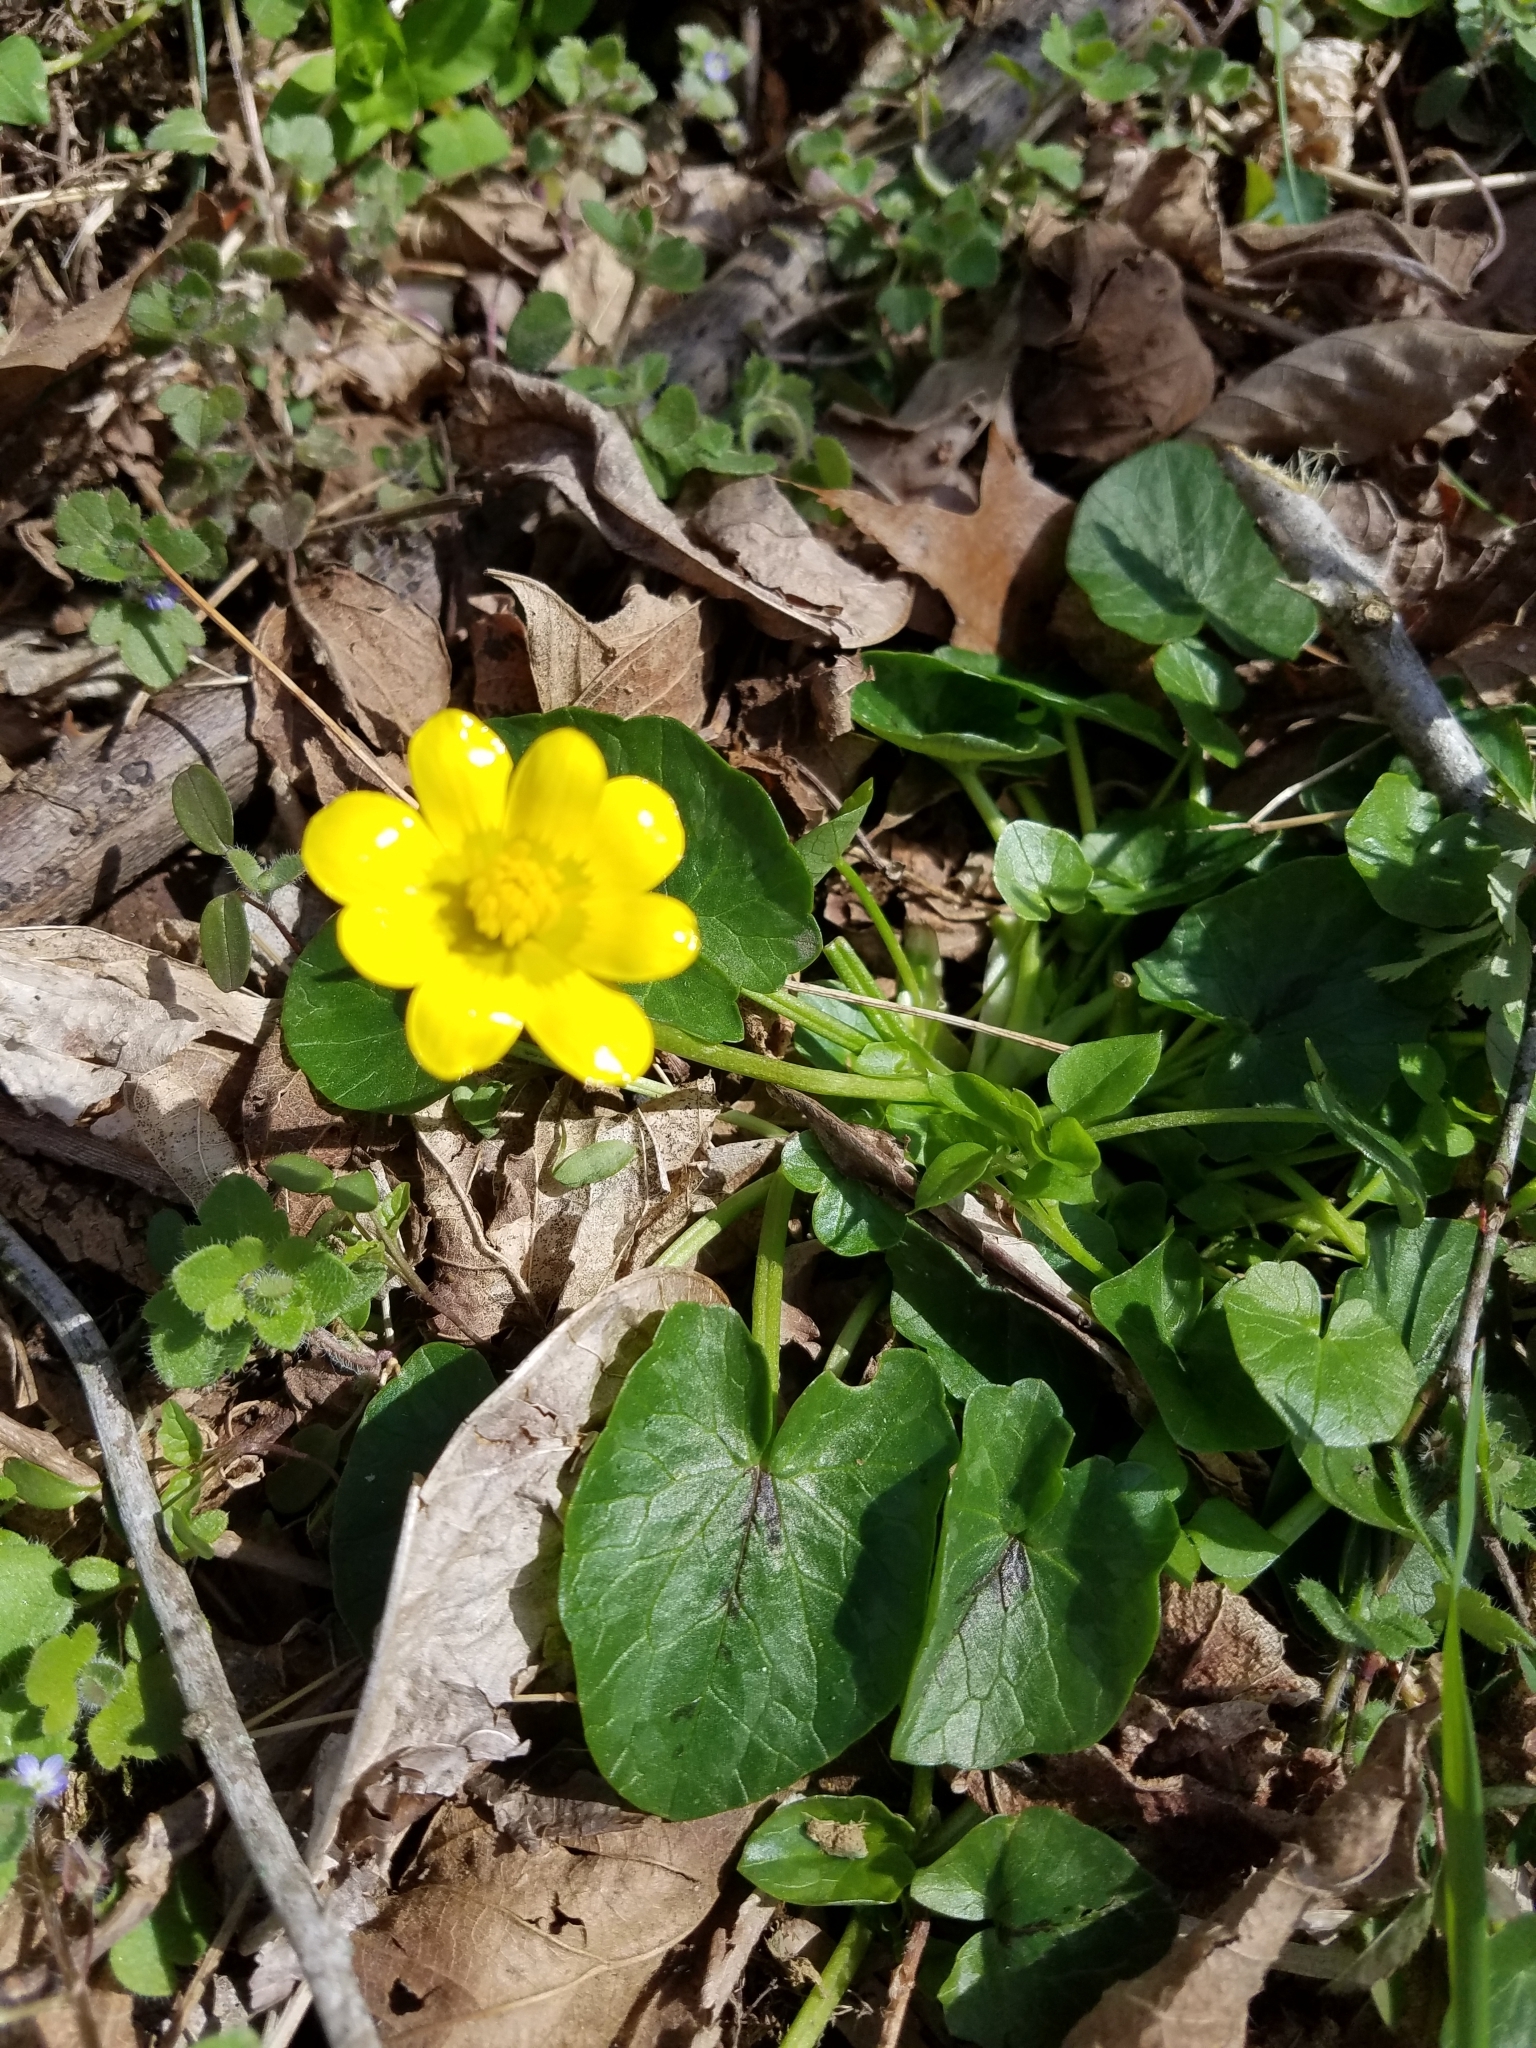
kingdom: Plantae
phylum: Tracheophyta
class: Magnoliopsida
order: Ranunculales
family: Ranunculaceae
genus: Ficaria
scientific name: Ficaria verna
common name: Lesser celandine
